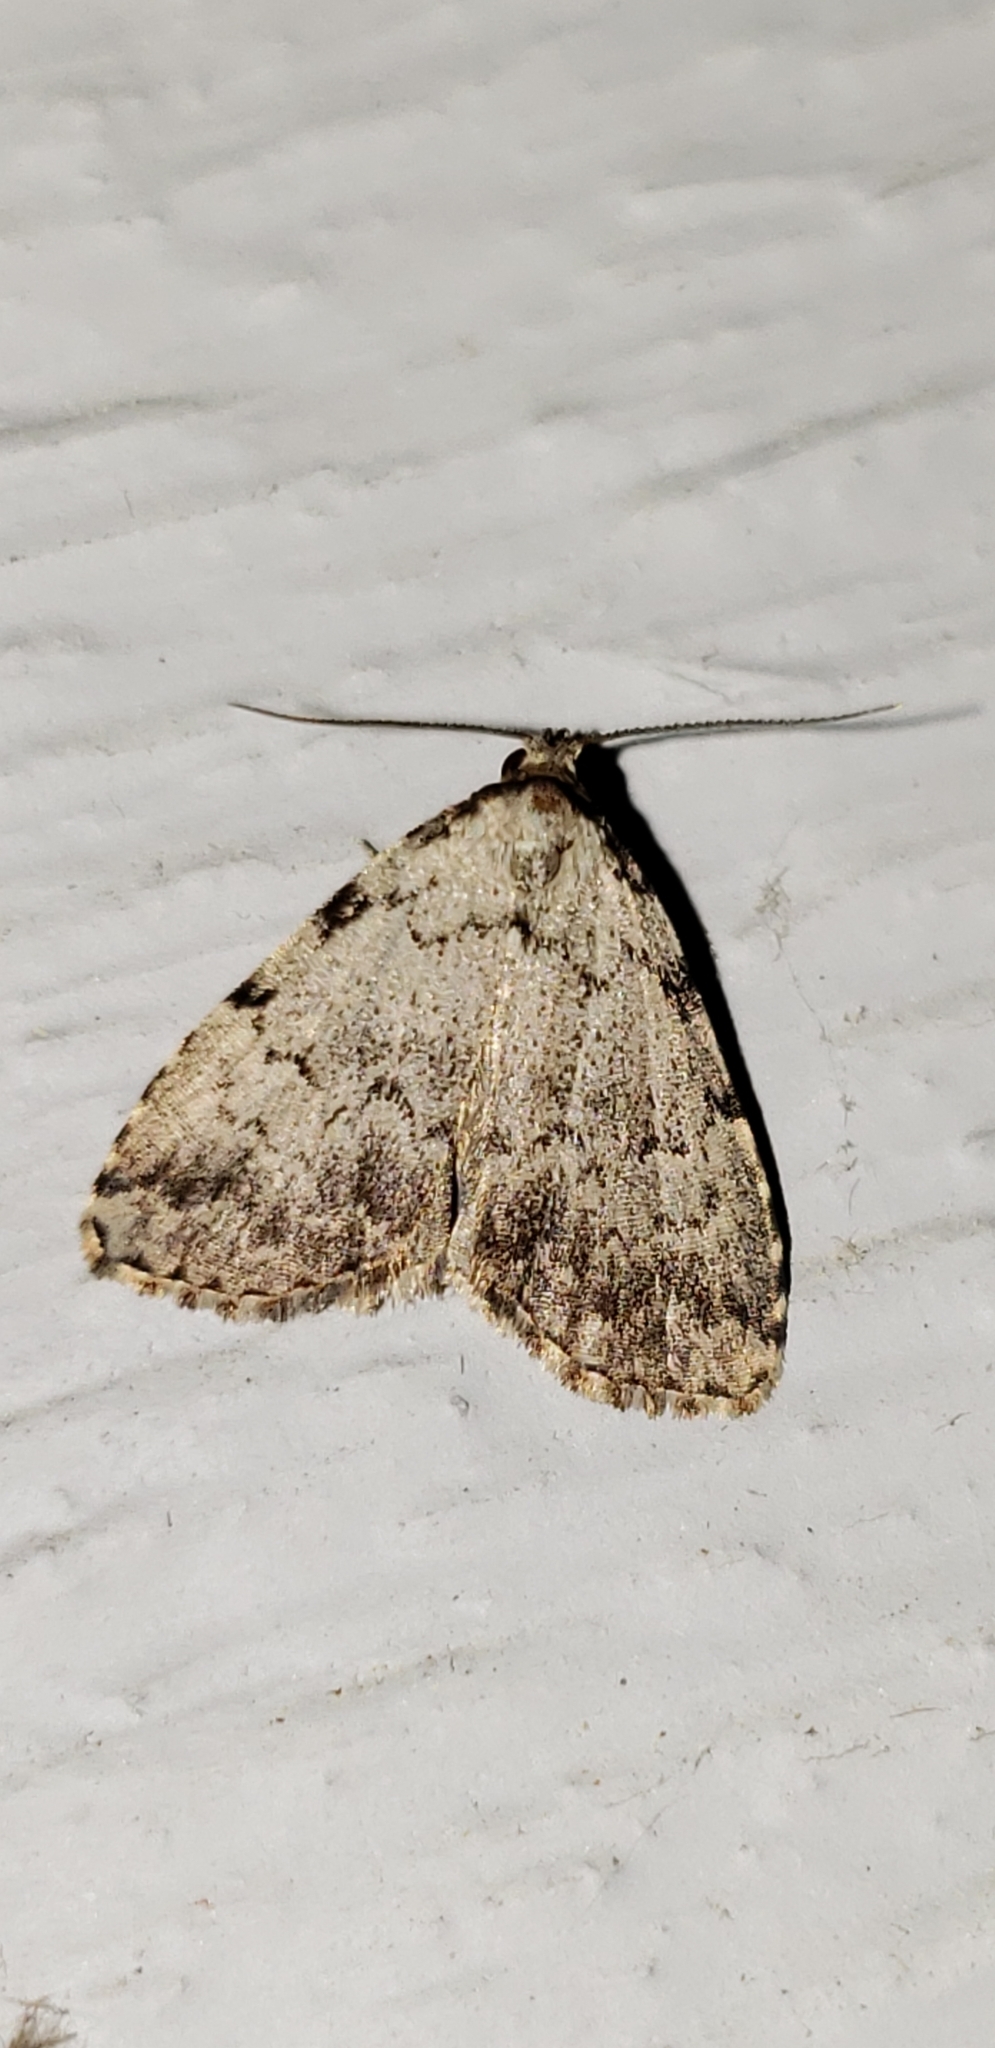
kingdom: Animalia
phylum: Arthropoda
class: Insecta
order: Lepidoptera
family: Erebidae
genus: Dyspyralis
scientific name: Dyspyralis puncticosta
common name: Spot-edged dyspyralis moth
